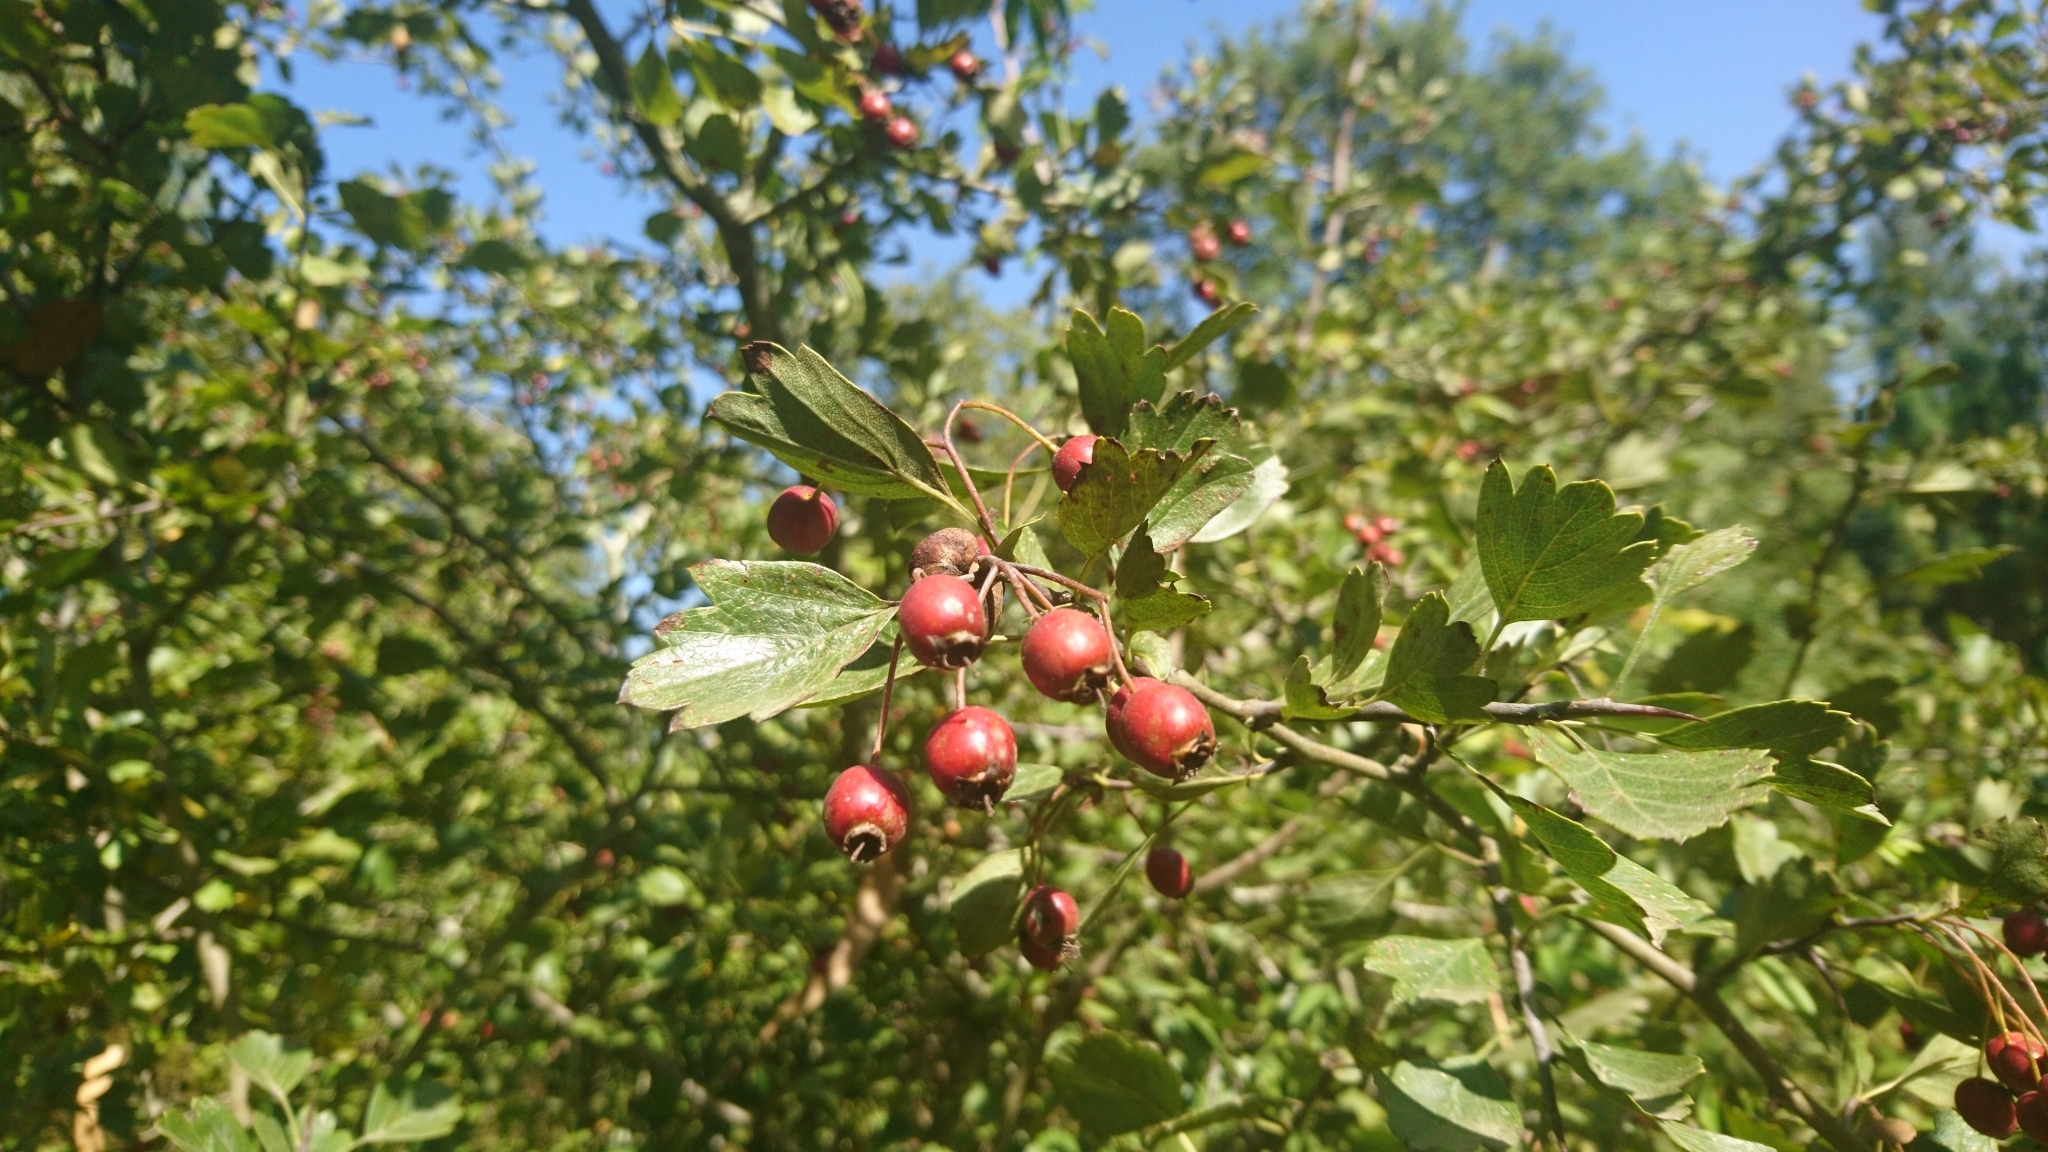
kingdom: Plantae
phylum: Tracheophyta
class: Magnoliopsida
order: Rosales
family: Rosaceae
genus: Crataegus
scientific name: Crataegus monogyna
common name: Hawthorn
